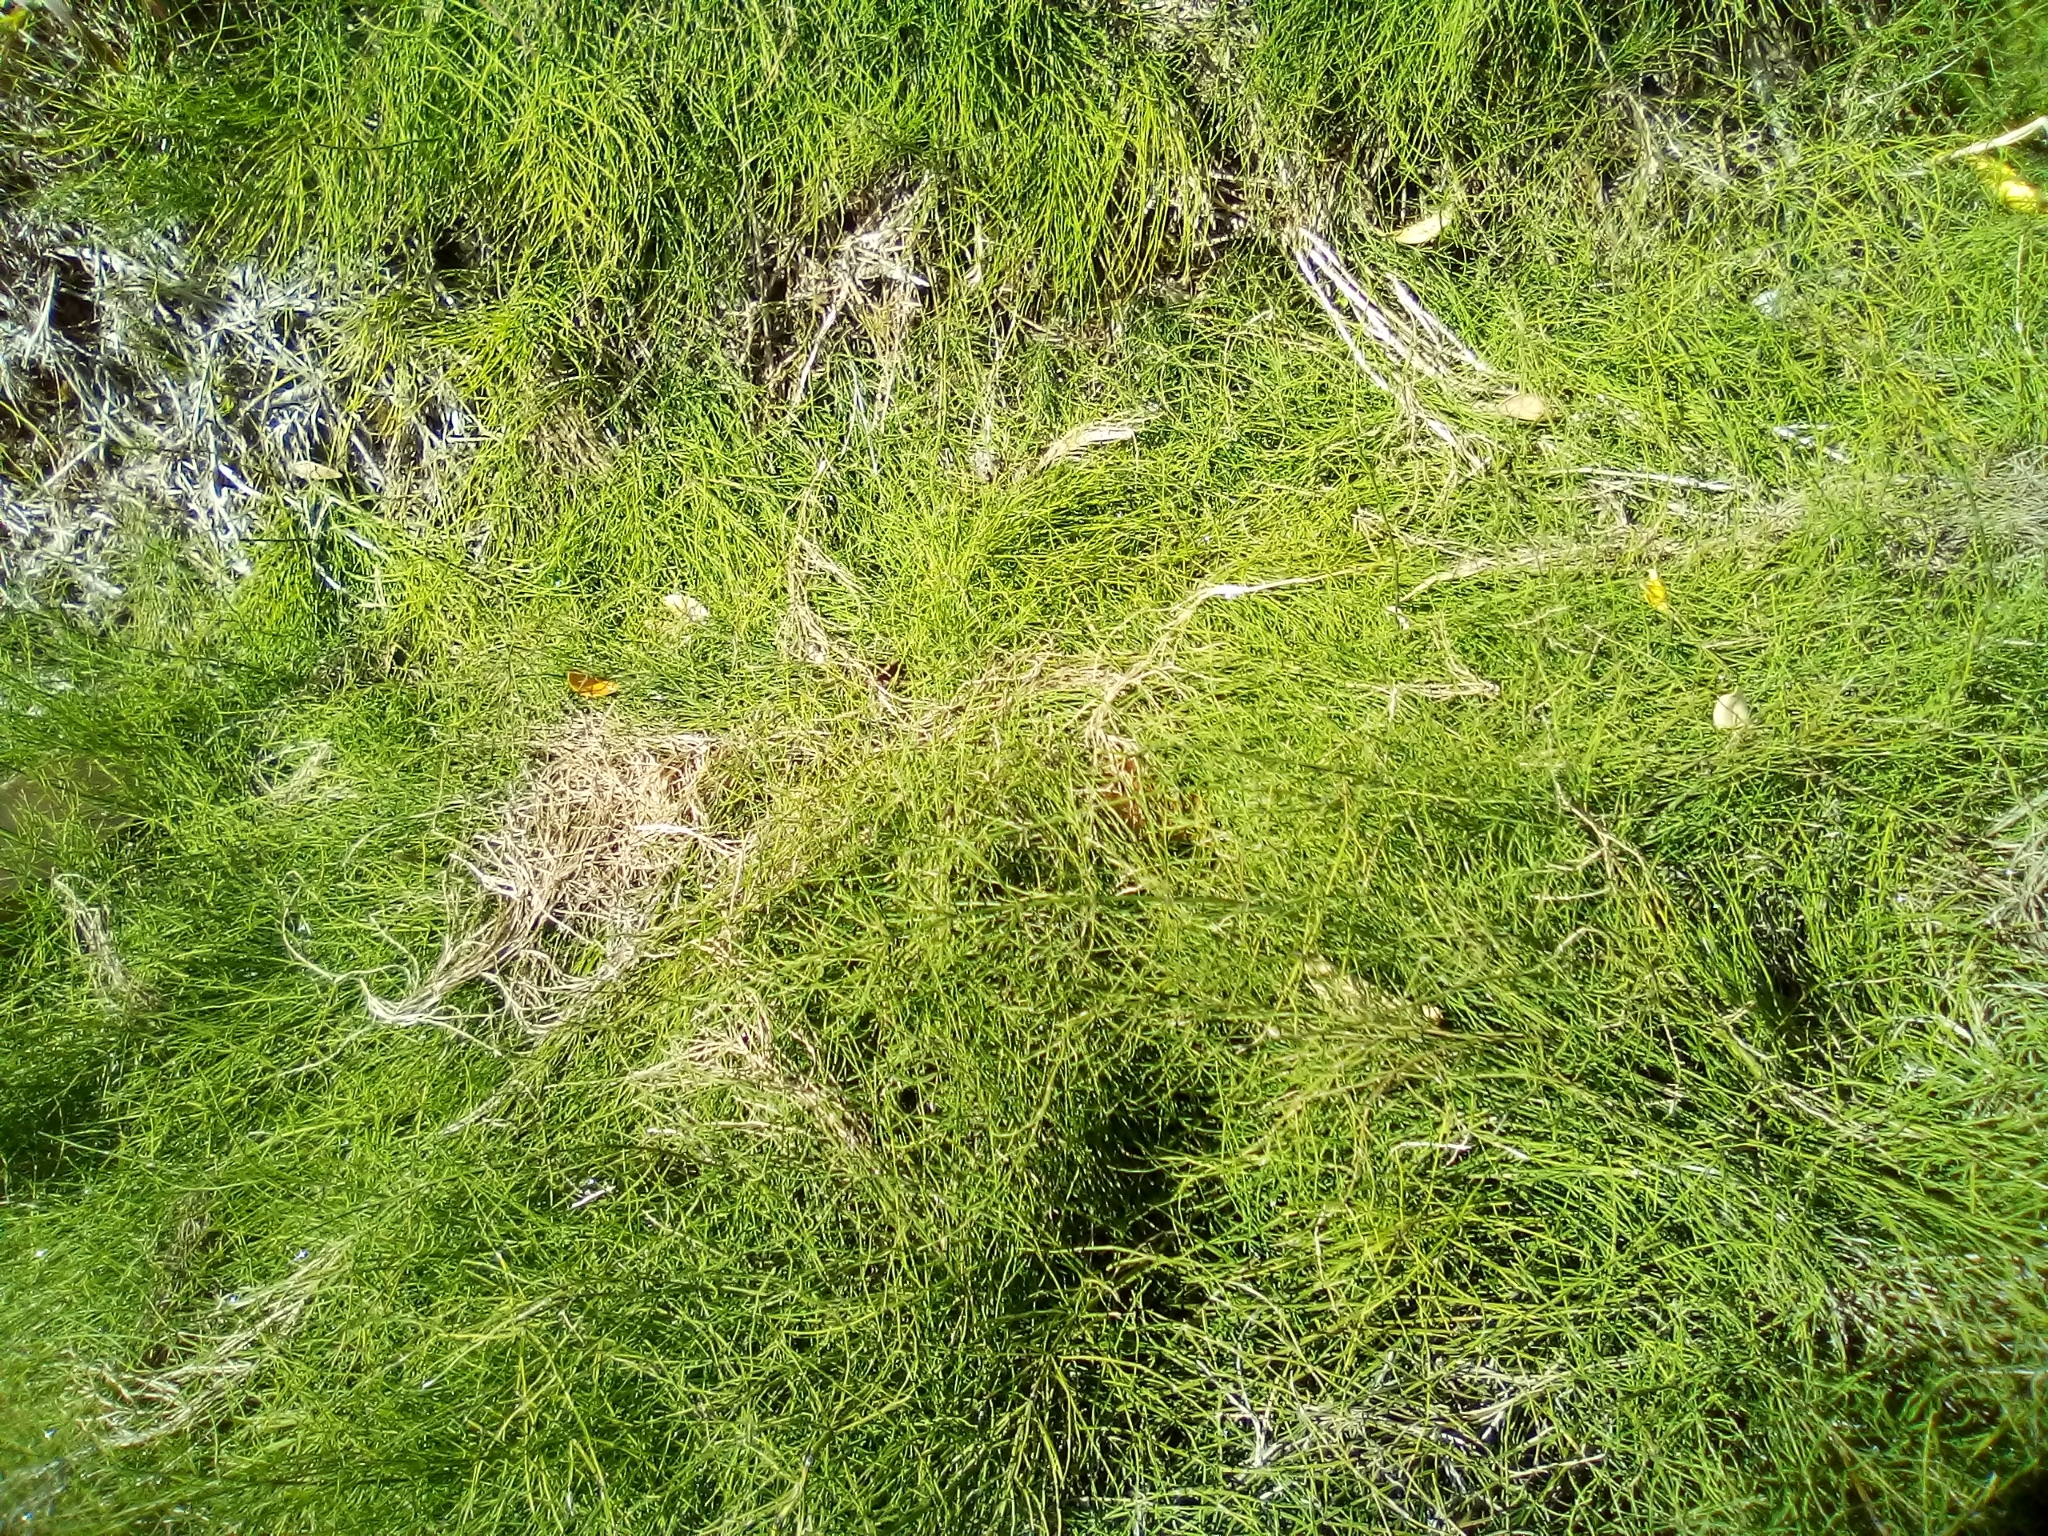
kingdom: Plantae
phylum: Tracheophyta
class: Polypodiopsida
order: Equisetales
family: Equisetaceae
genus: Equisetum
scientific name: Equisetum arvense
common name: Field horsetail
